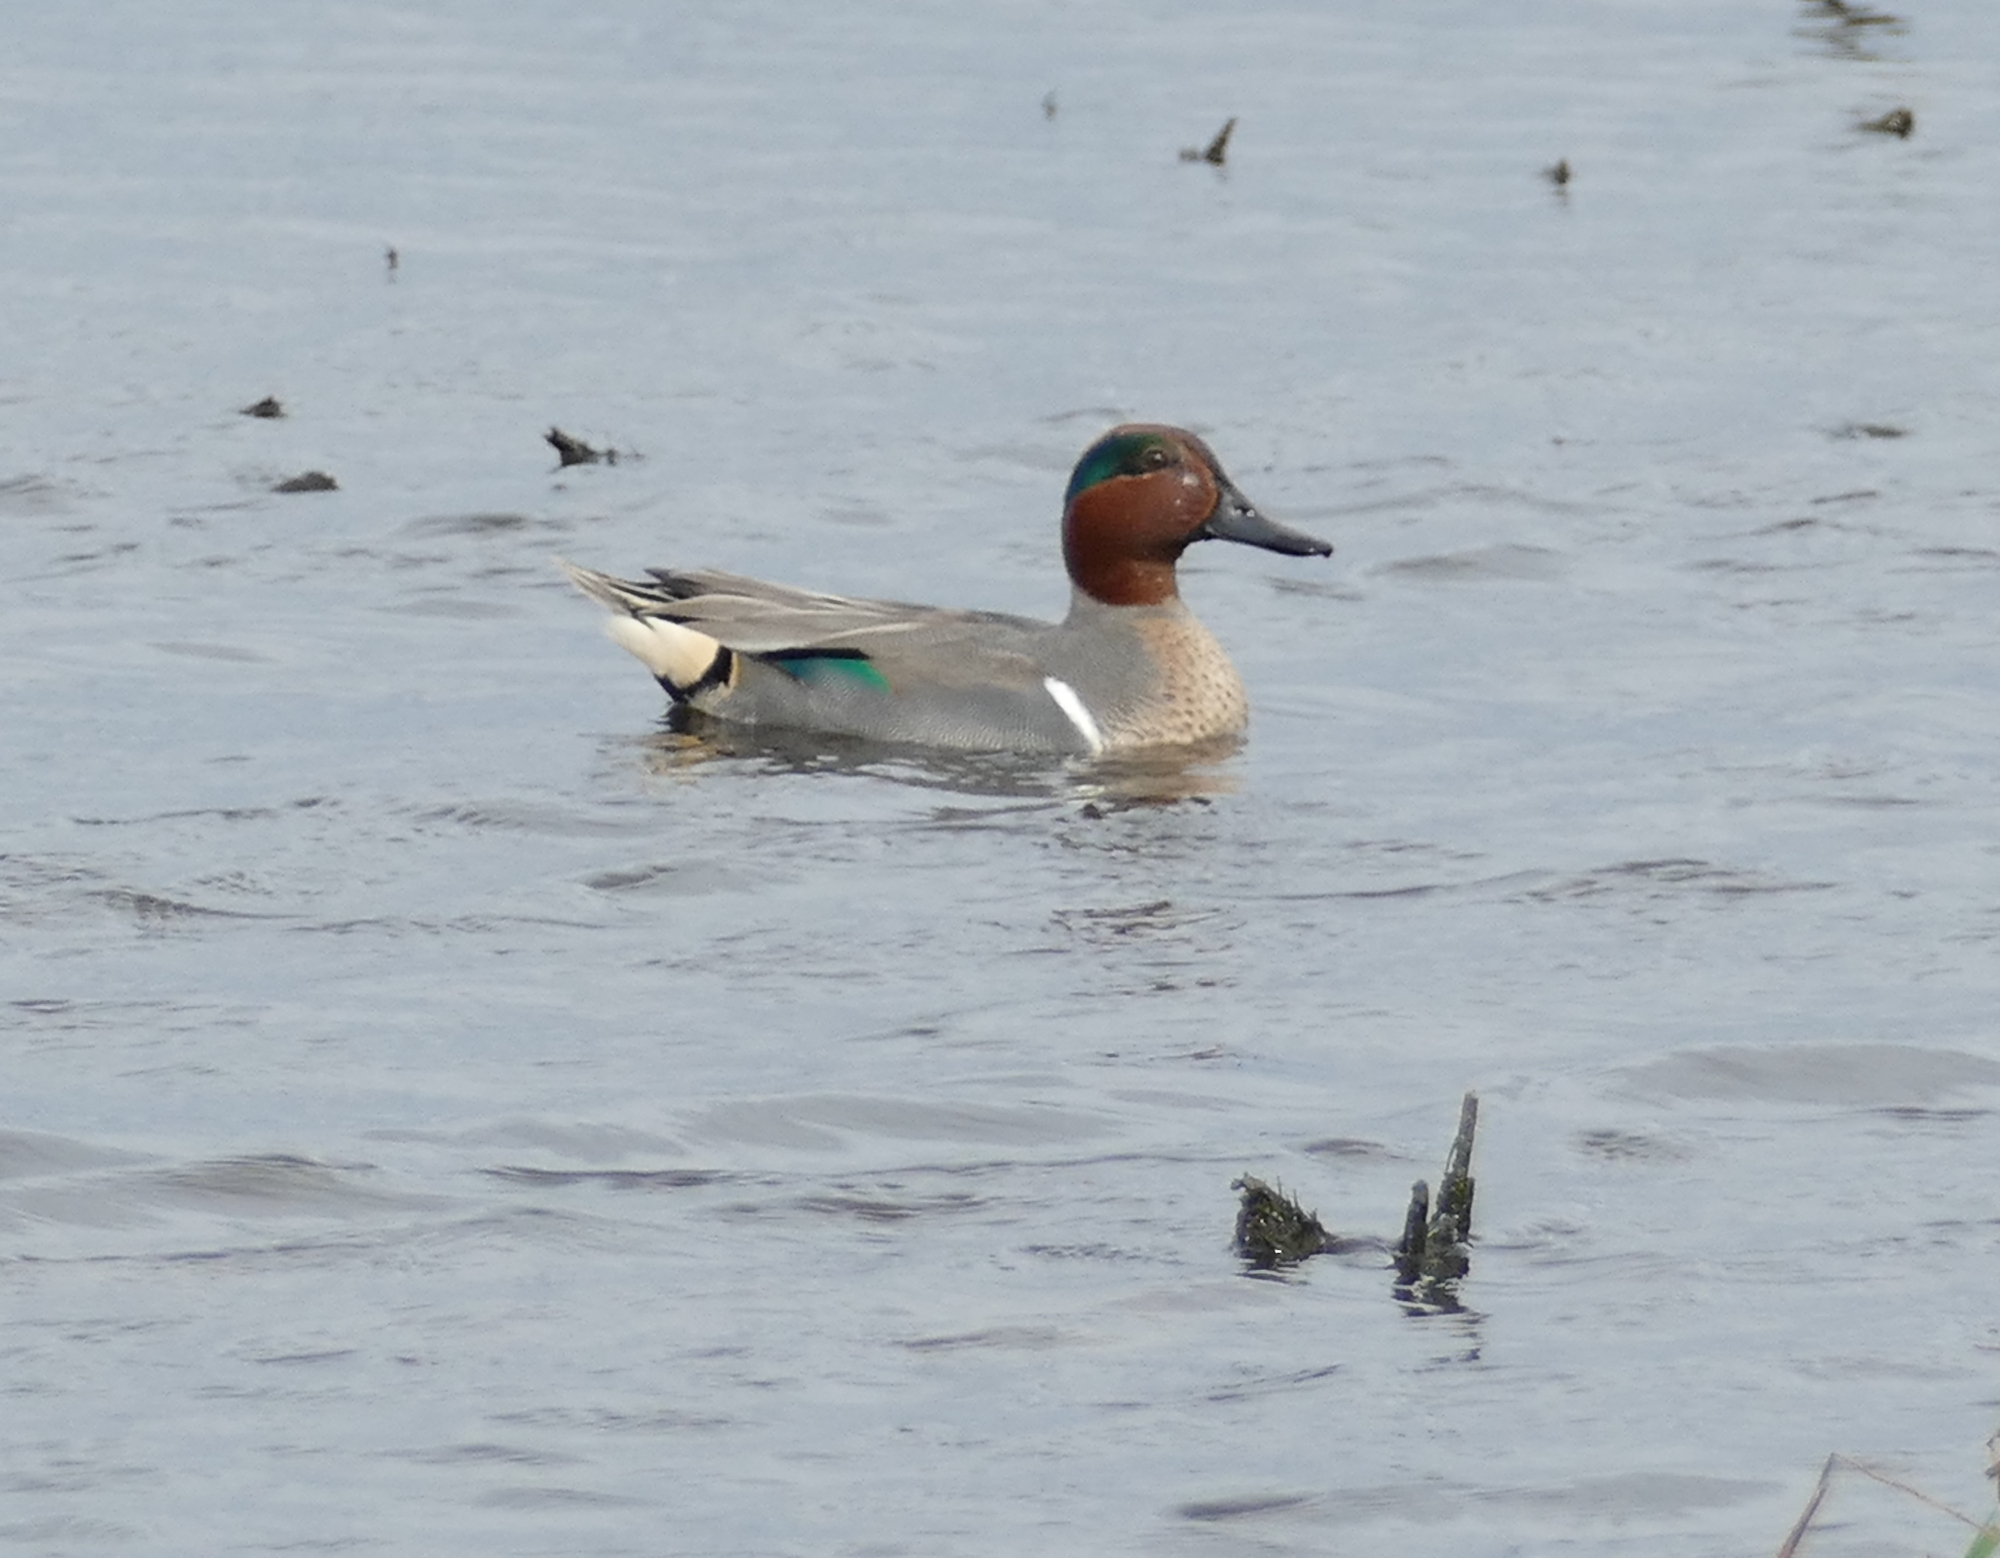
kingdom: Animalia
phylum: Chordata
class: Aves
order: Anseriformes
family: Anatidae
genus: Anas
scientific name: Anas crecca
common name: Eurasian teal
